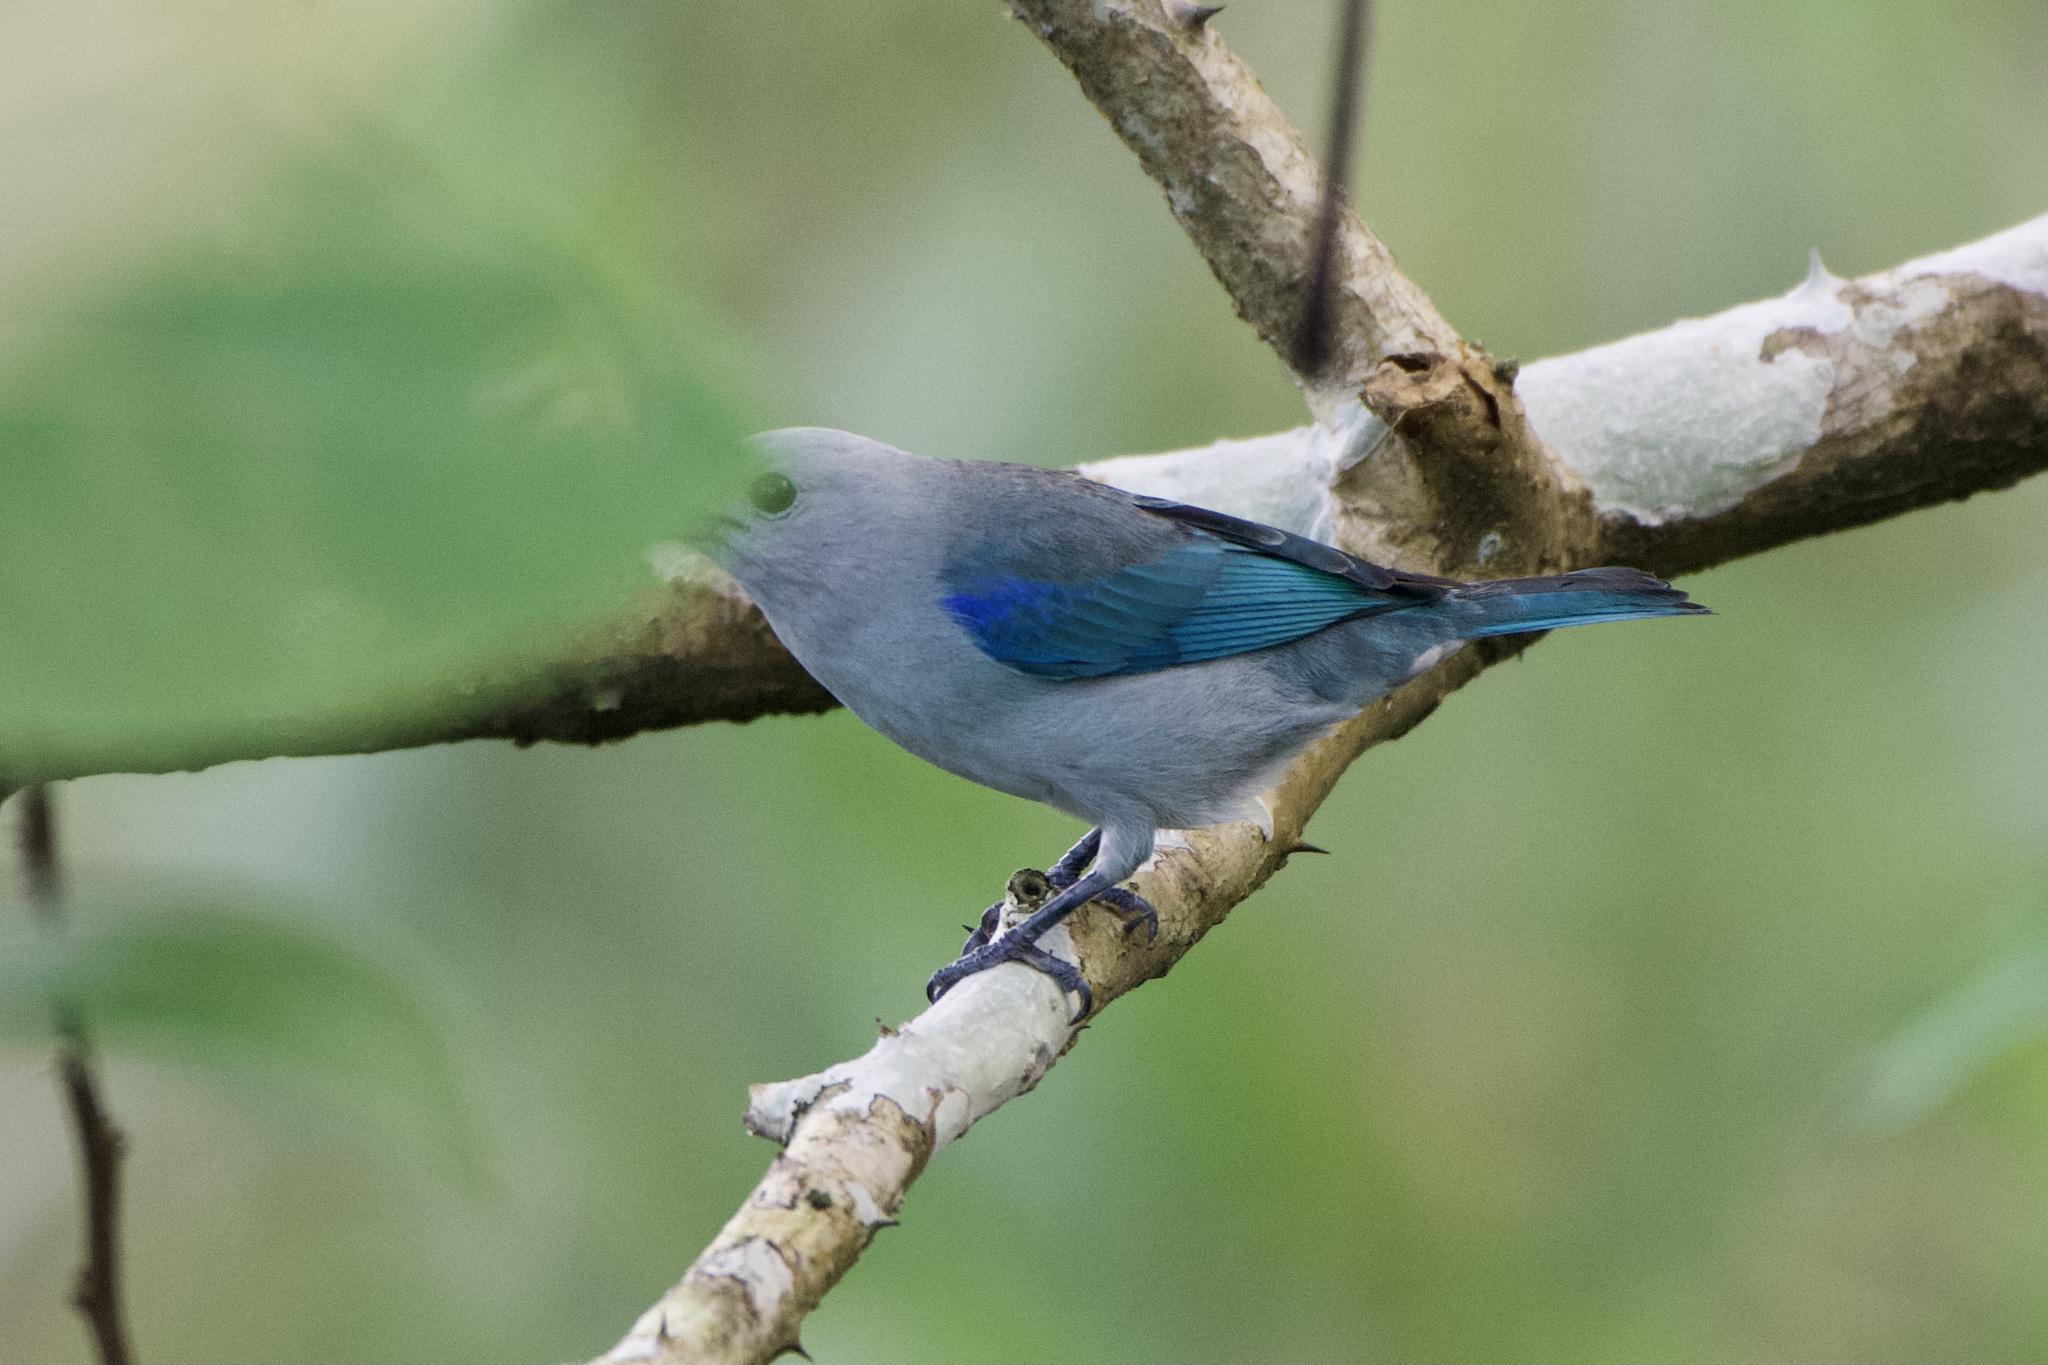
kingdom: Animalia
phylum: Chordata
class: Aves
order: Passeriformes
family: Thraupidae
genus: Thraupis
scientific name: Thraupis episcopus
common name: Blue-grey tanager
